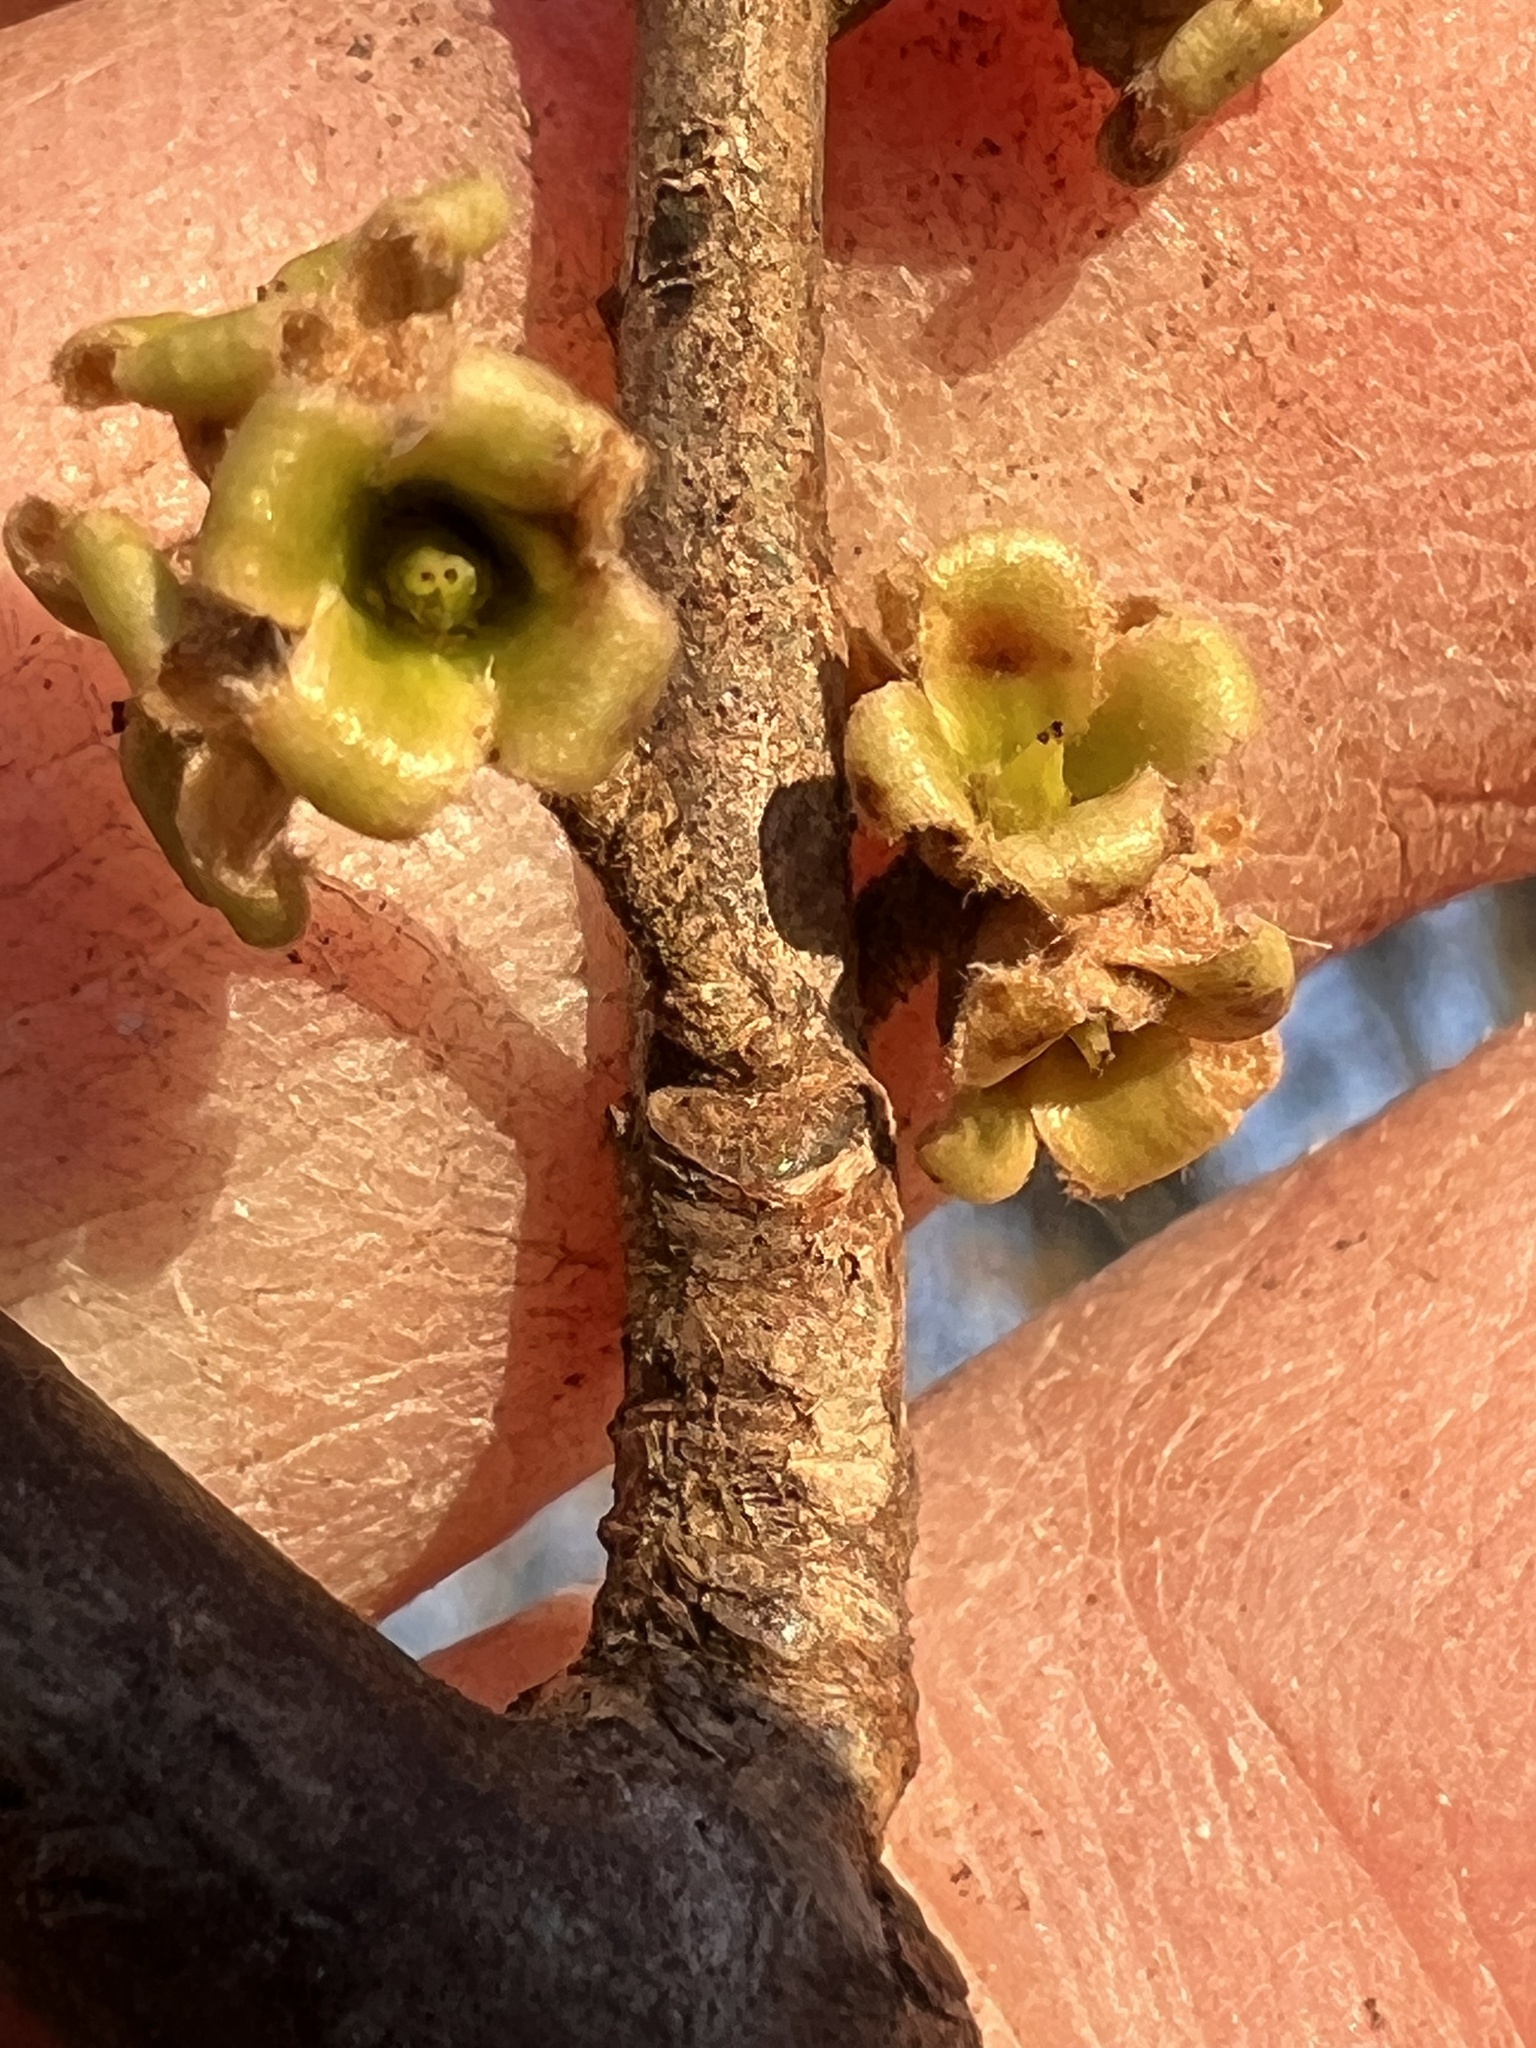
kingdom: Plantae
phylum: Tracheophyta
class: Magnoliopsida
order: Saxifragales
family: Hamamelidaceae
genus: Hamamelis
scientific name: Hamamelis virginiana
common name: Witch-hazel
